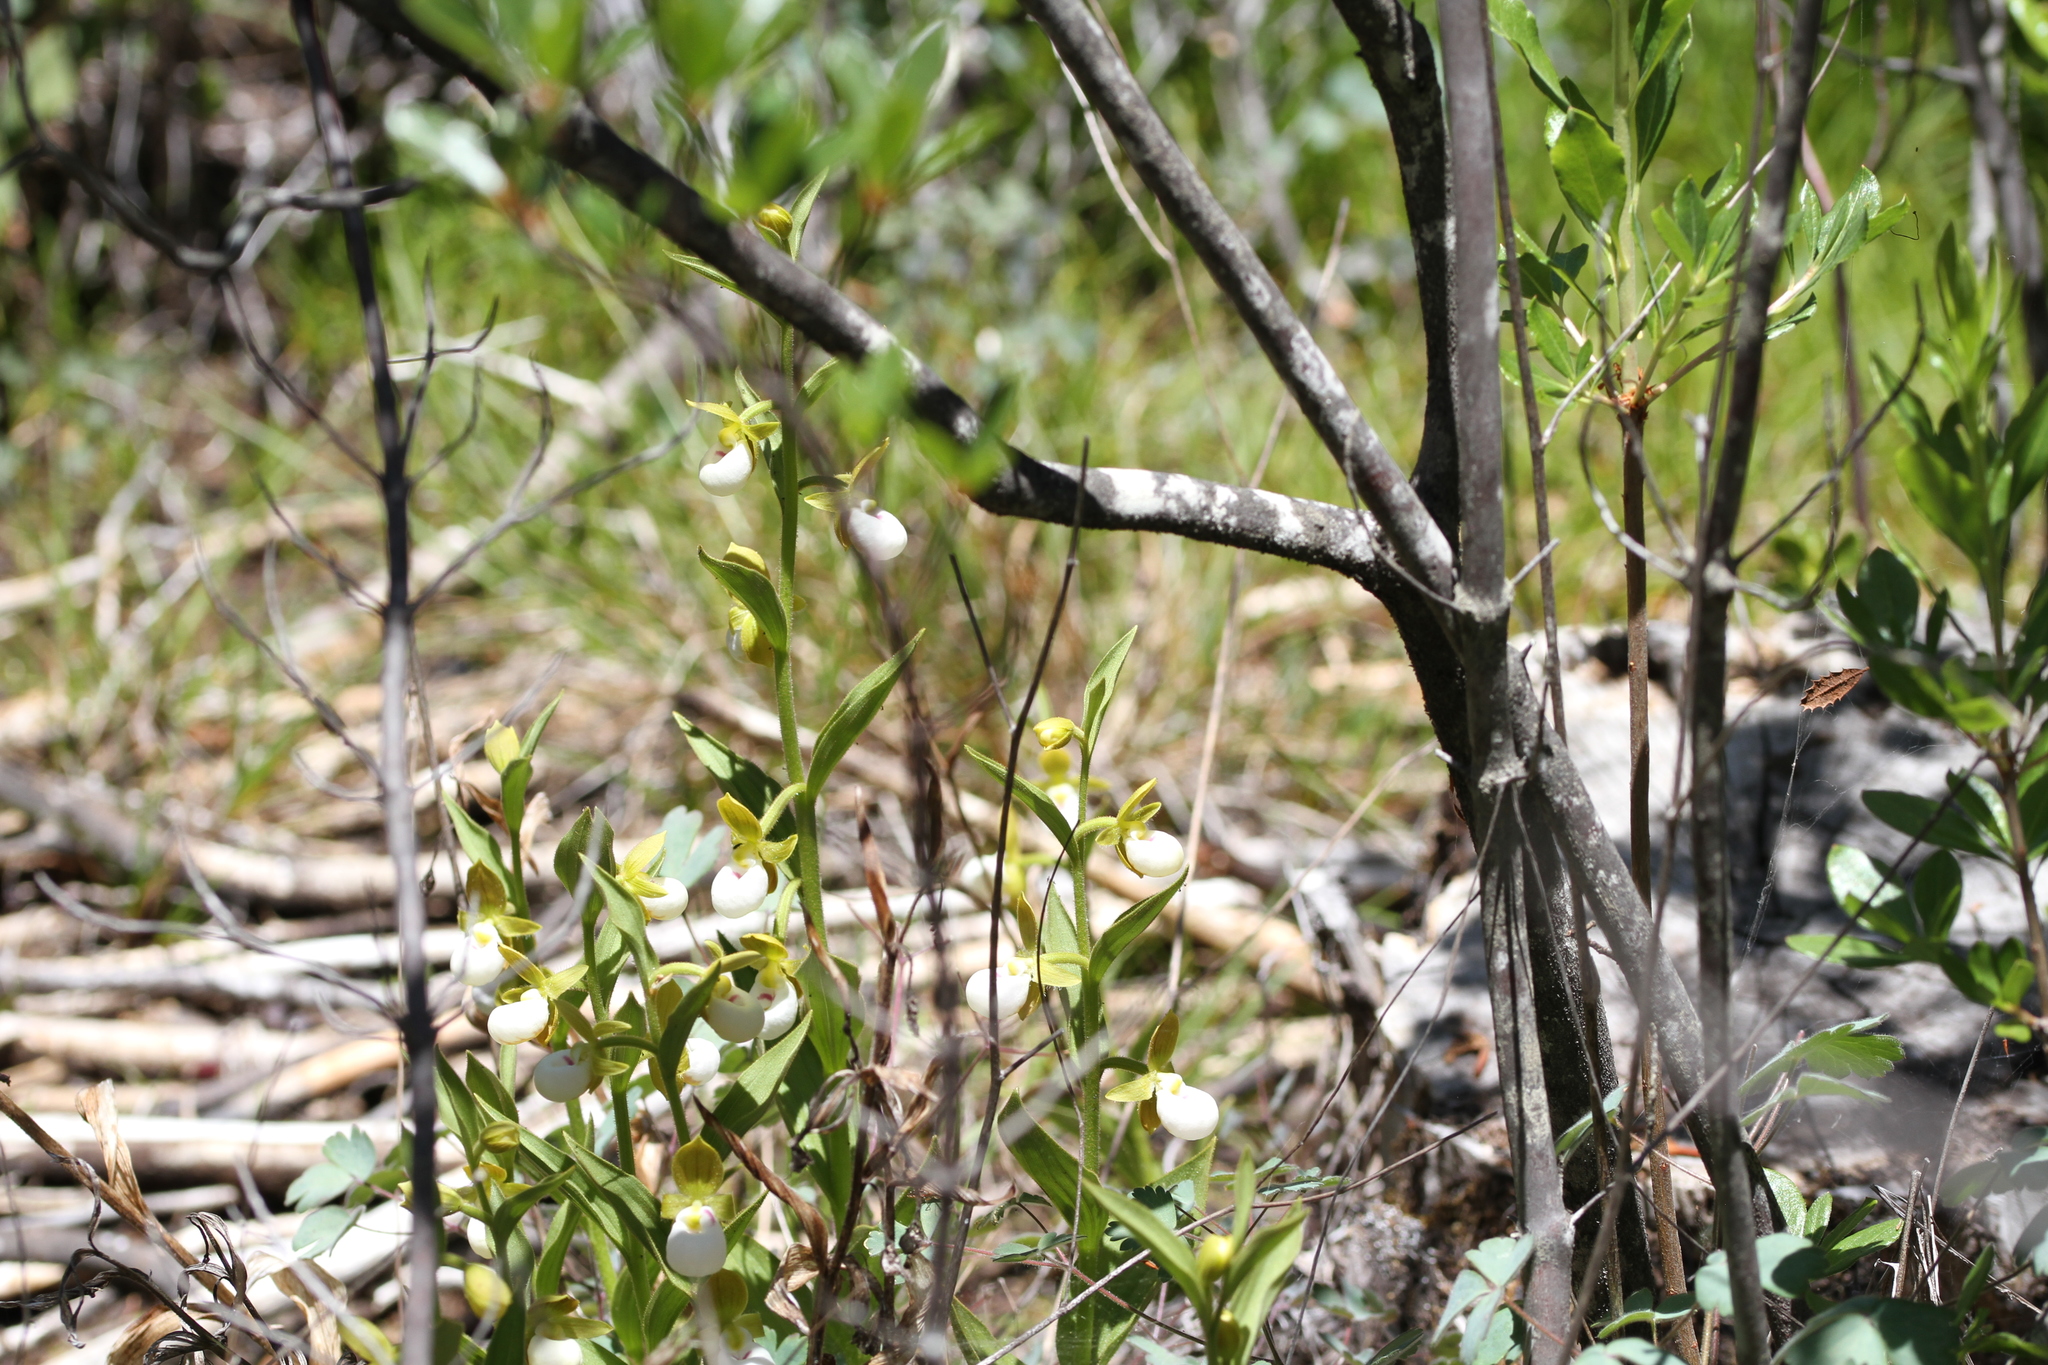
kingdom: Plantae
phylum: Tracheophyta
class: Liliopsida
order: Asparagales
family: Orchidaceae
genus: Cypripedium
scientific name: Cypripedium californicum
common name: California lady's slipper
